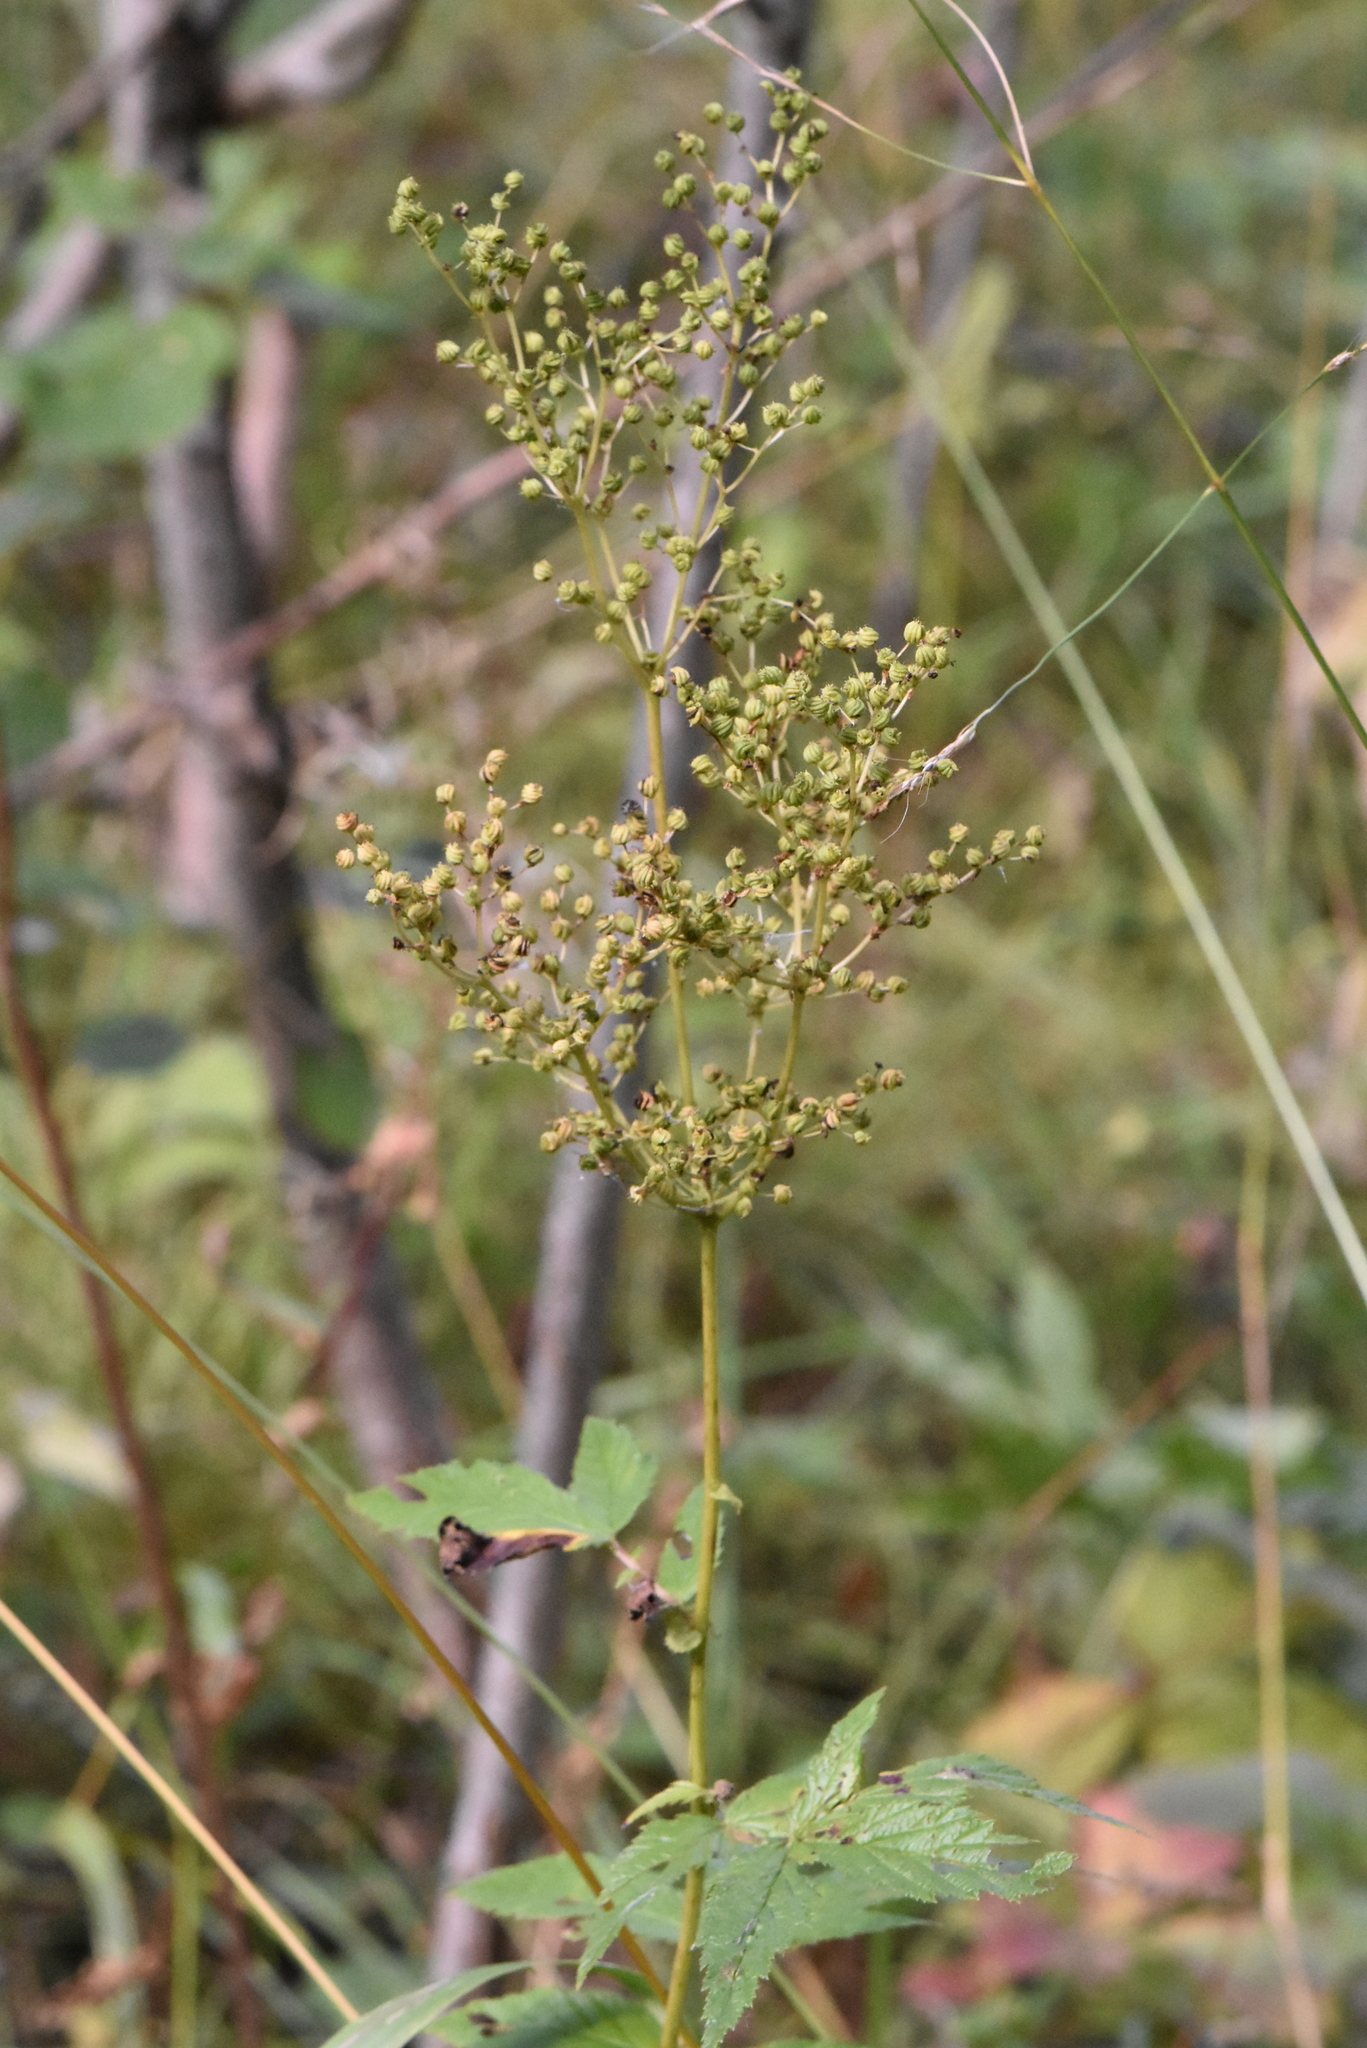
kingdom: Plantae
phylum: Tracheophyta
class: Magnoliopsida
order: Rosales
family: Rosaceae
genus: Filipendula
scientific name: Filipendula ulmaria
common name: Meadowsweet
